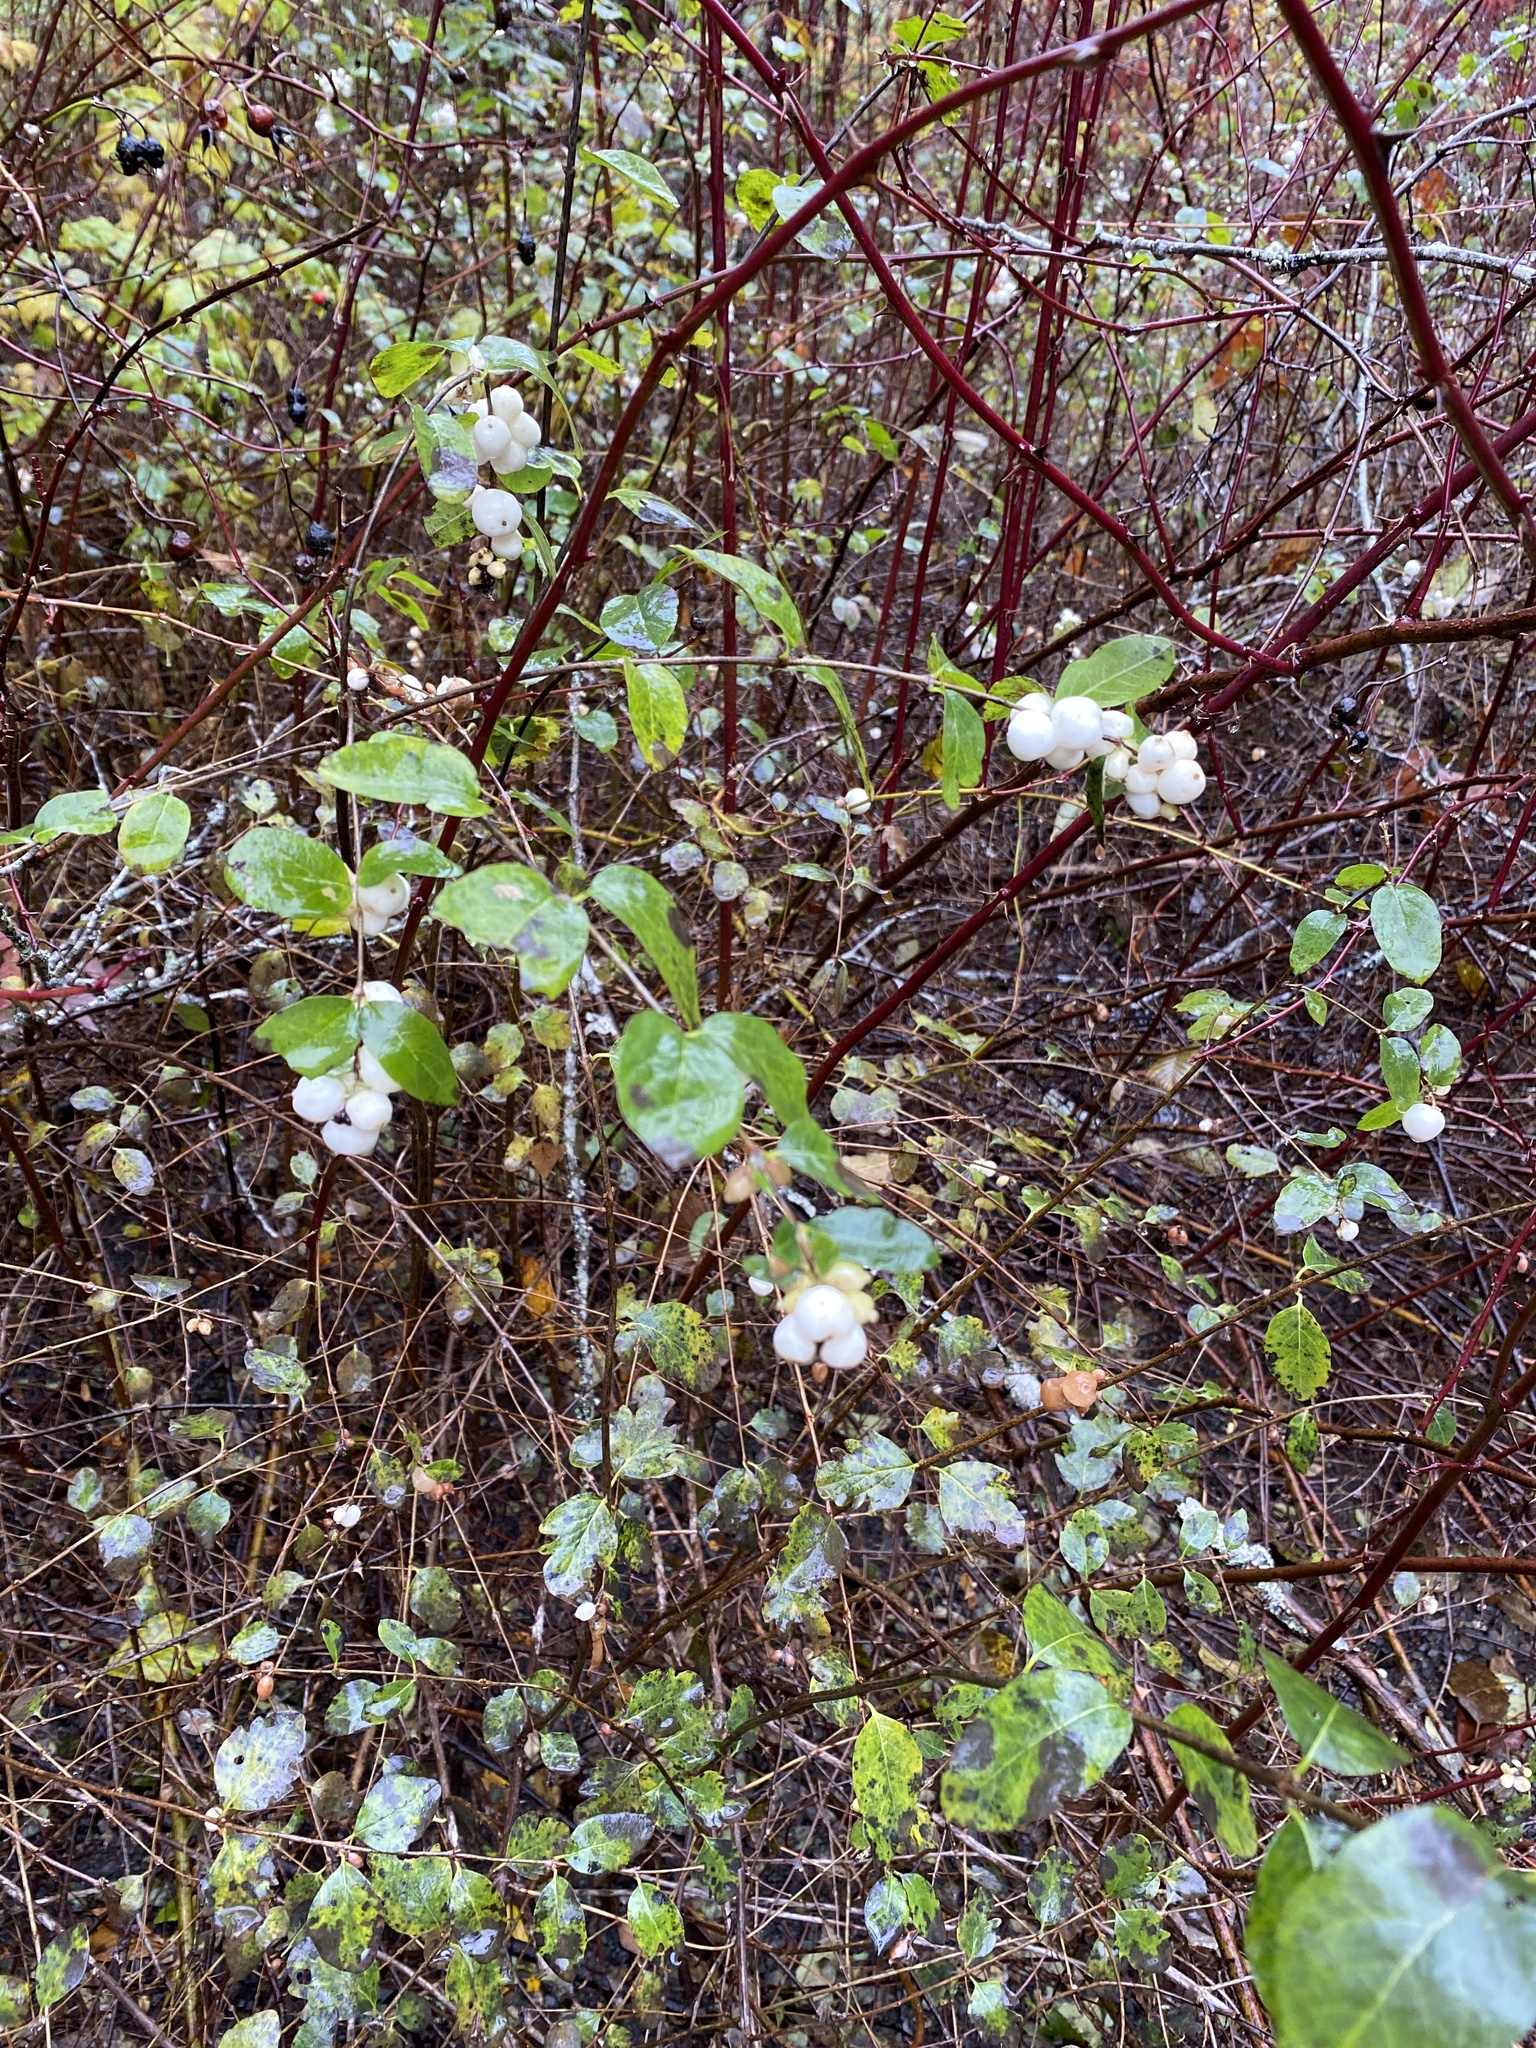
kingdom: Plantae
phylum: Tracheophyta
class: Magnoliopsida
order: Dipsacales
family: Caprifoliaceae
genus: Symphoricarpos
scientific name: Symphoricarpos albus
